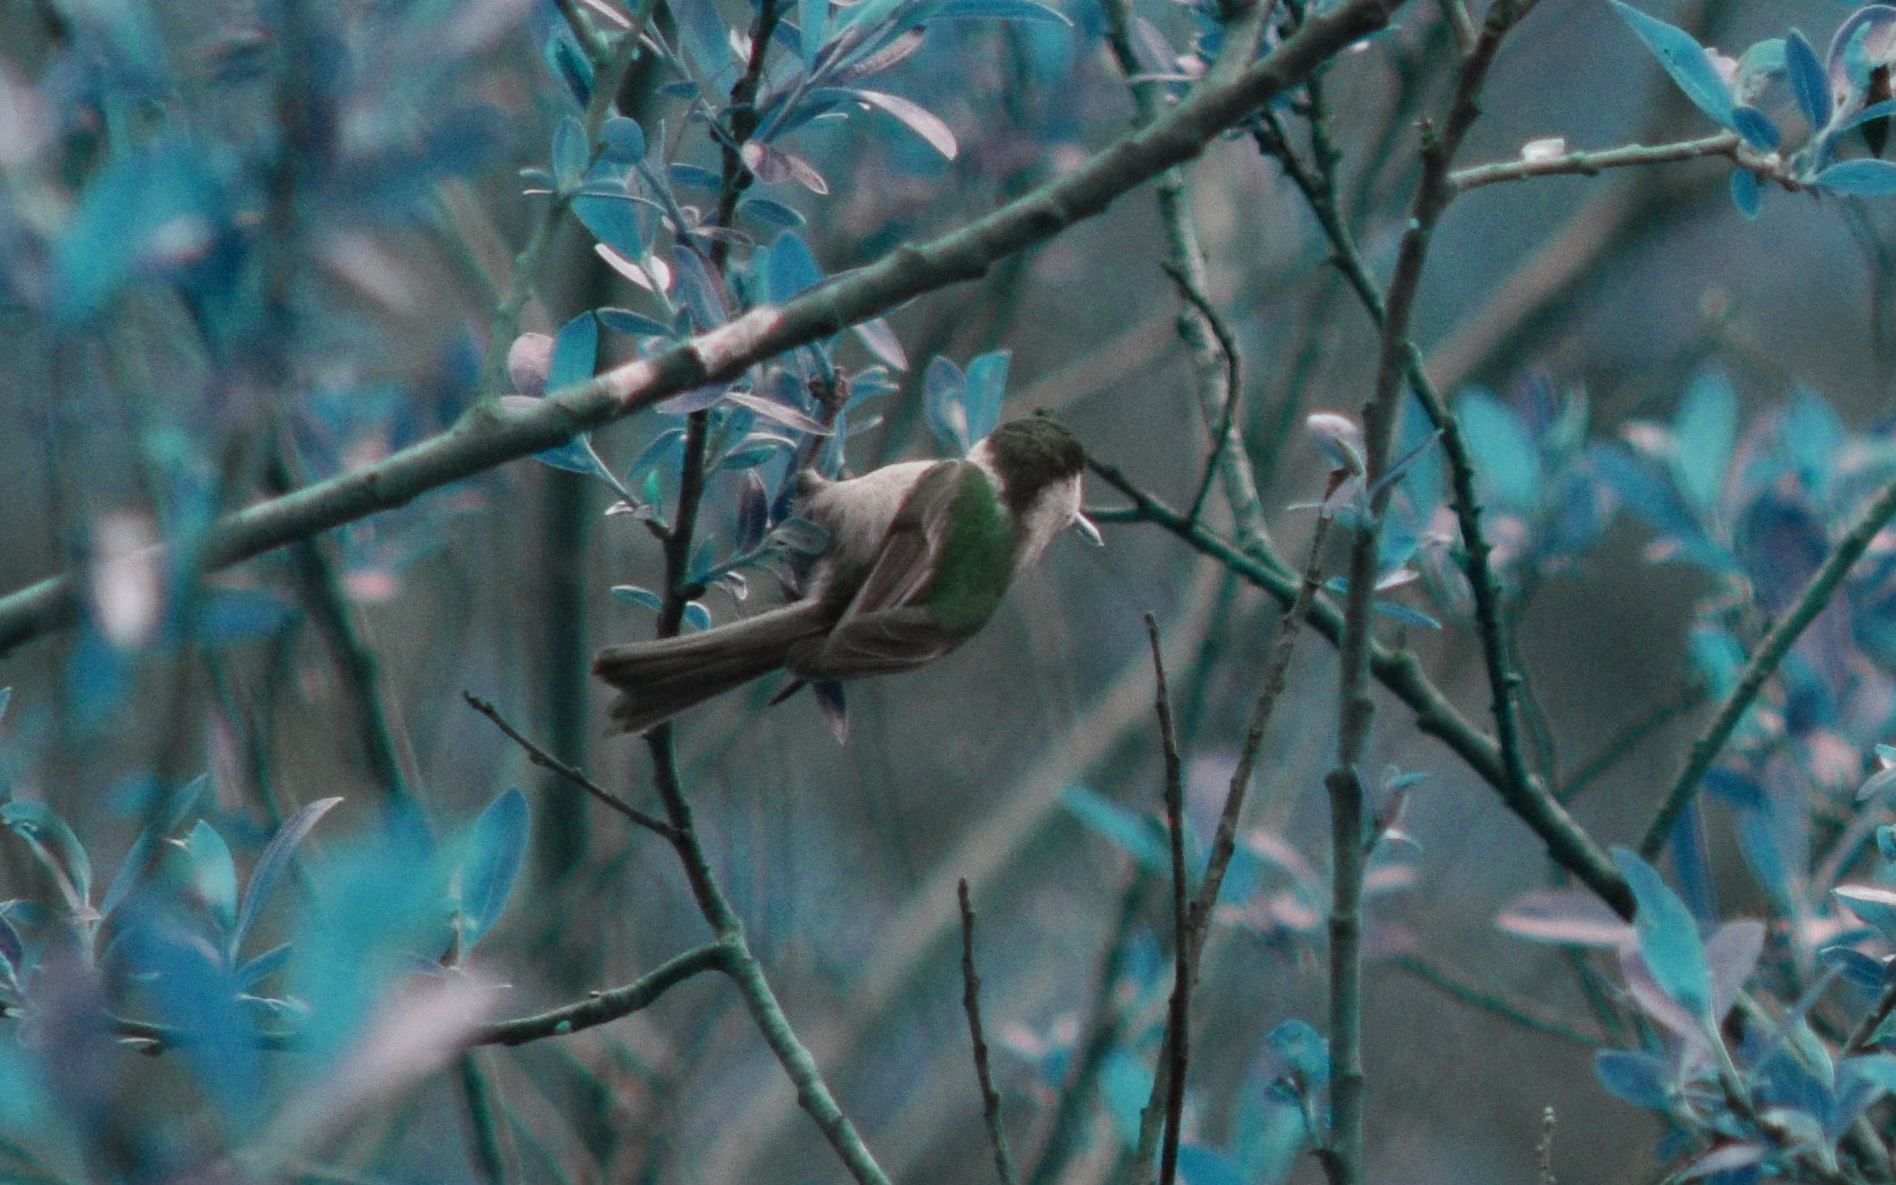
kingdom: Animalia
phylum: Chordata
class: Aves
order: Passeriformes
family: Paridae
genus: Poecile
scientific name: Poecile rufescens
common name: Chestnut-backed chickadee
